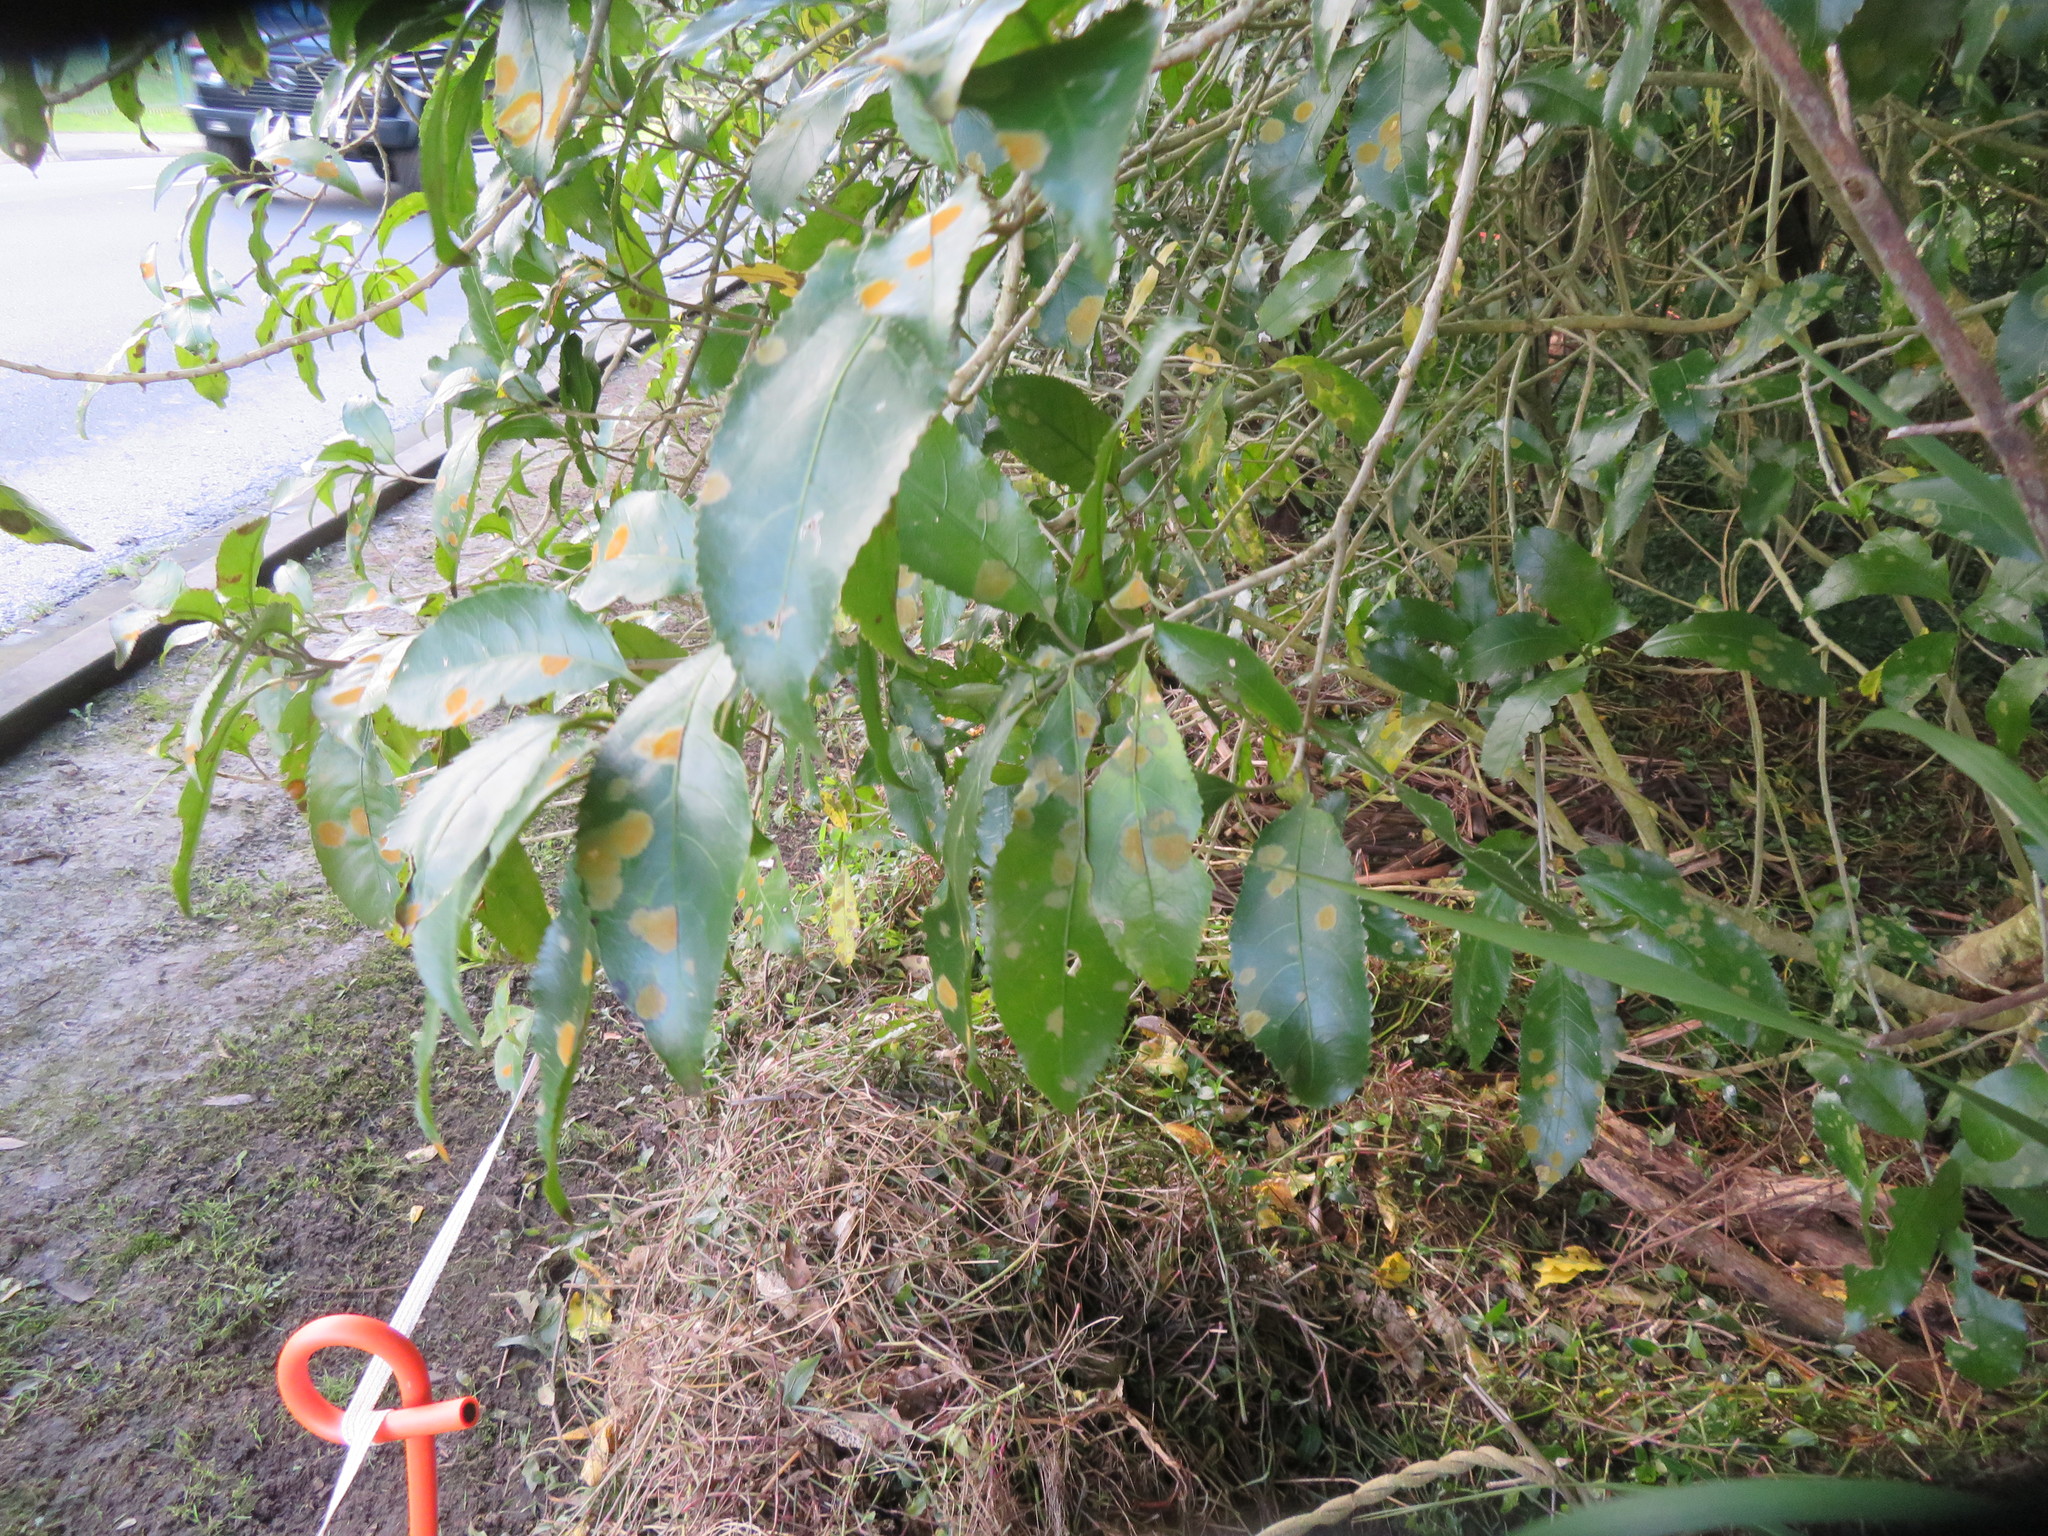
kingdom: Plantae
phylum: Tracheophyta
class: Magnoliopsida
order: Malpighiales
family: Violaceae
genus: Melicytus
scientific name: Melicytus ramiflorus
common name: Mahoe
